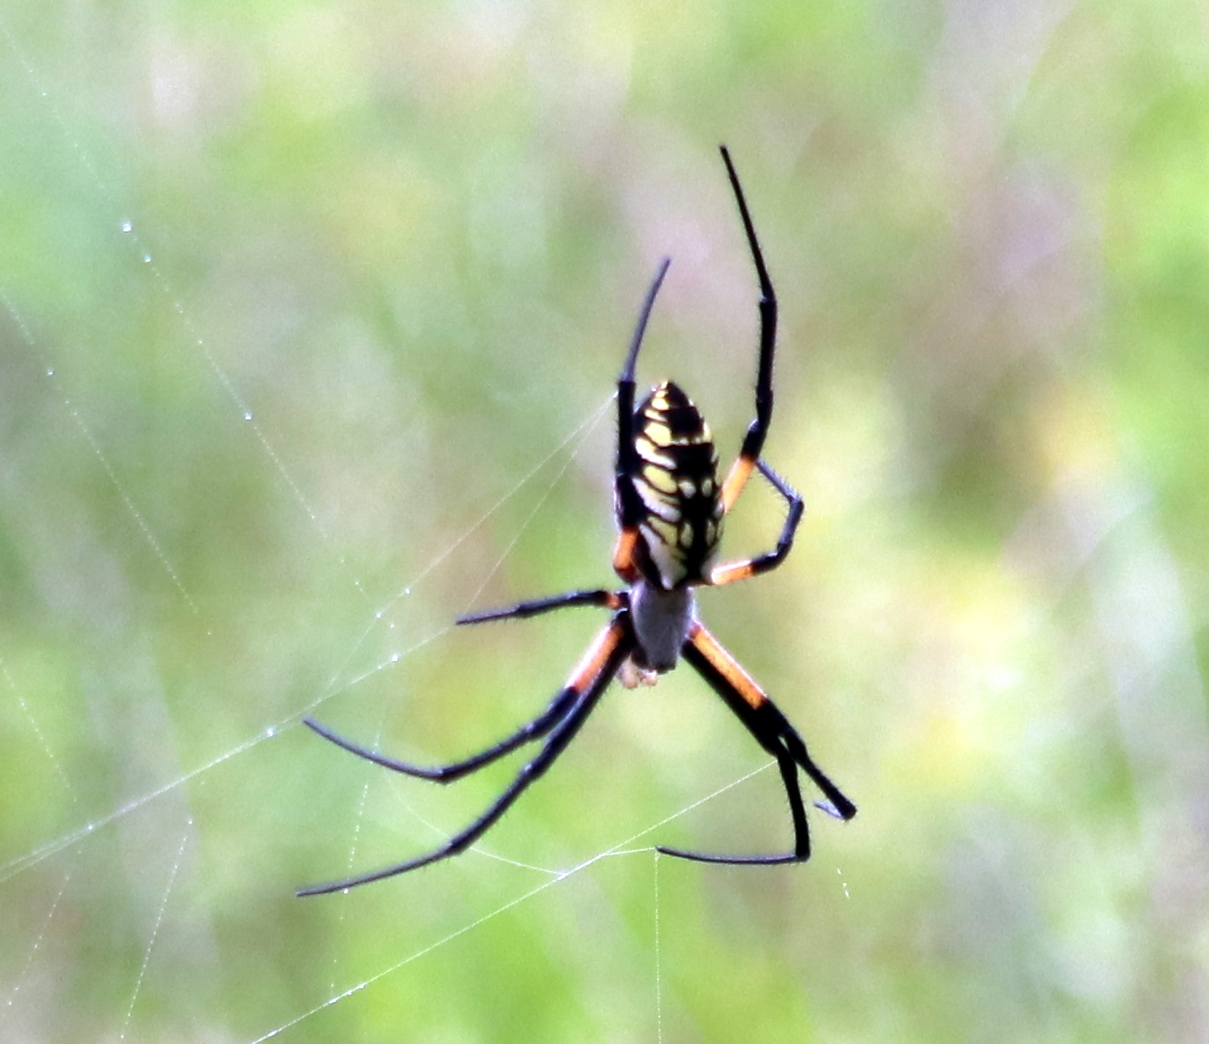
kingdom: Animalia
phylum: Arthropoda
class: Arachnida
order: Araneae
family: Araneidae
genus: Argiope
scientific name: Argiope aurantia
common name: Orb weavers
